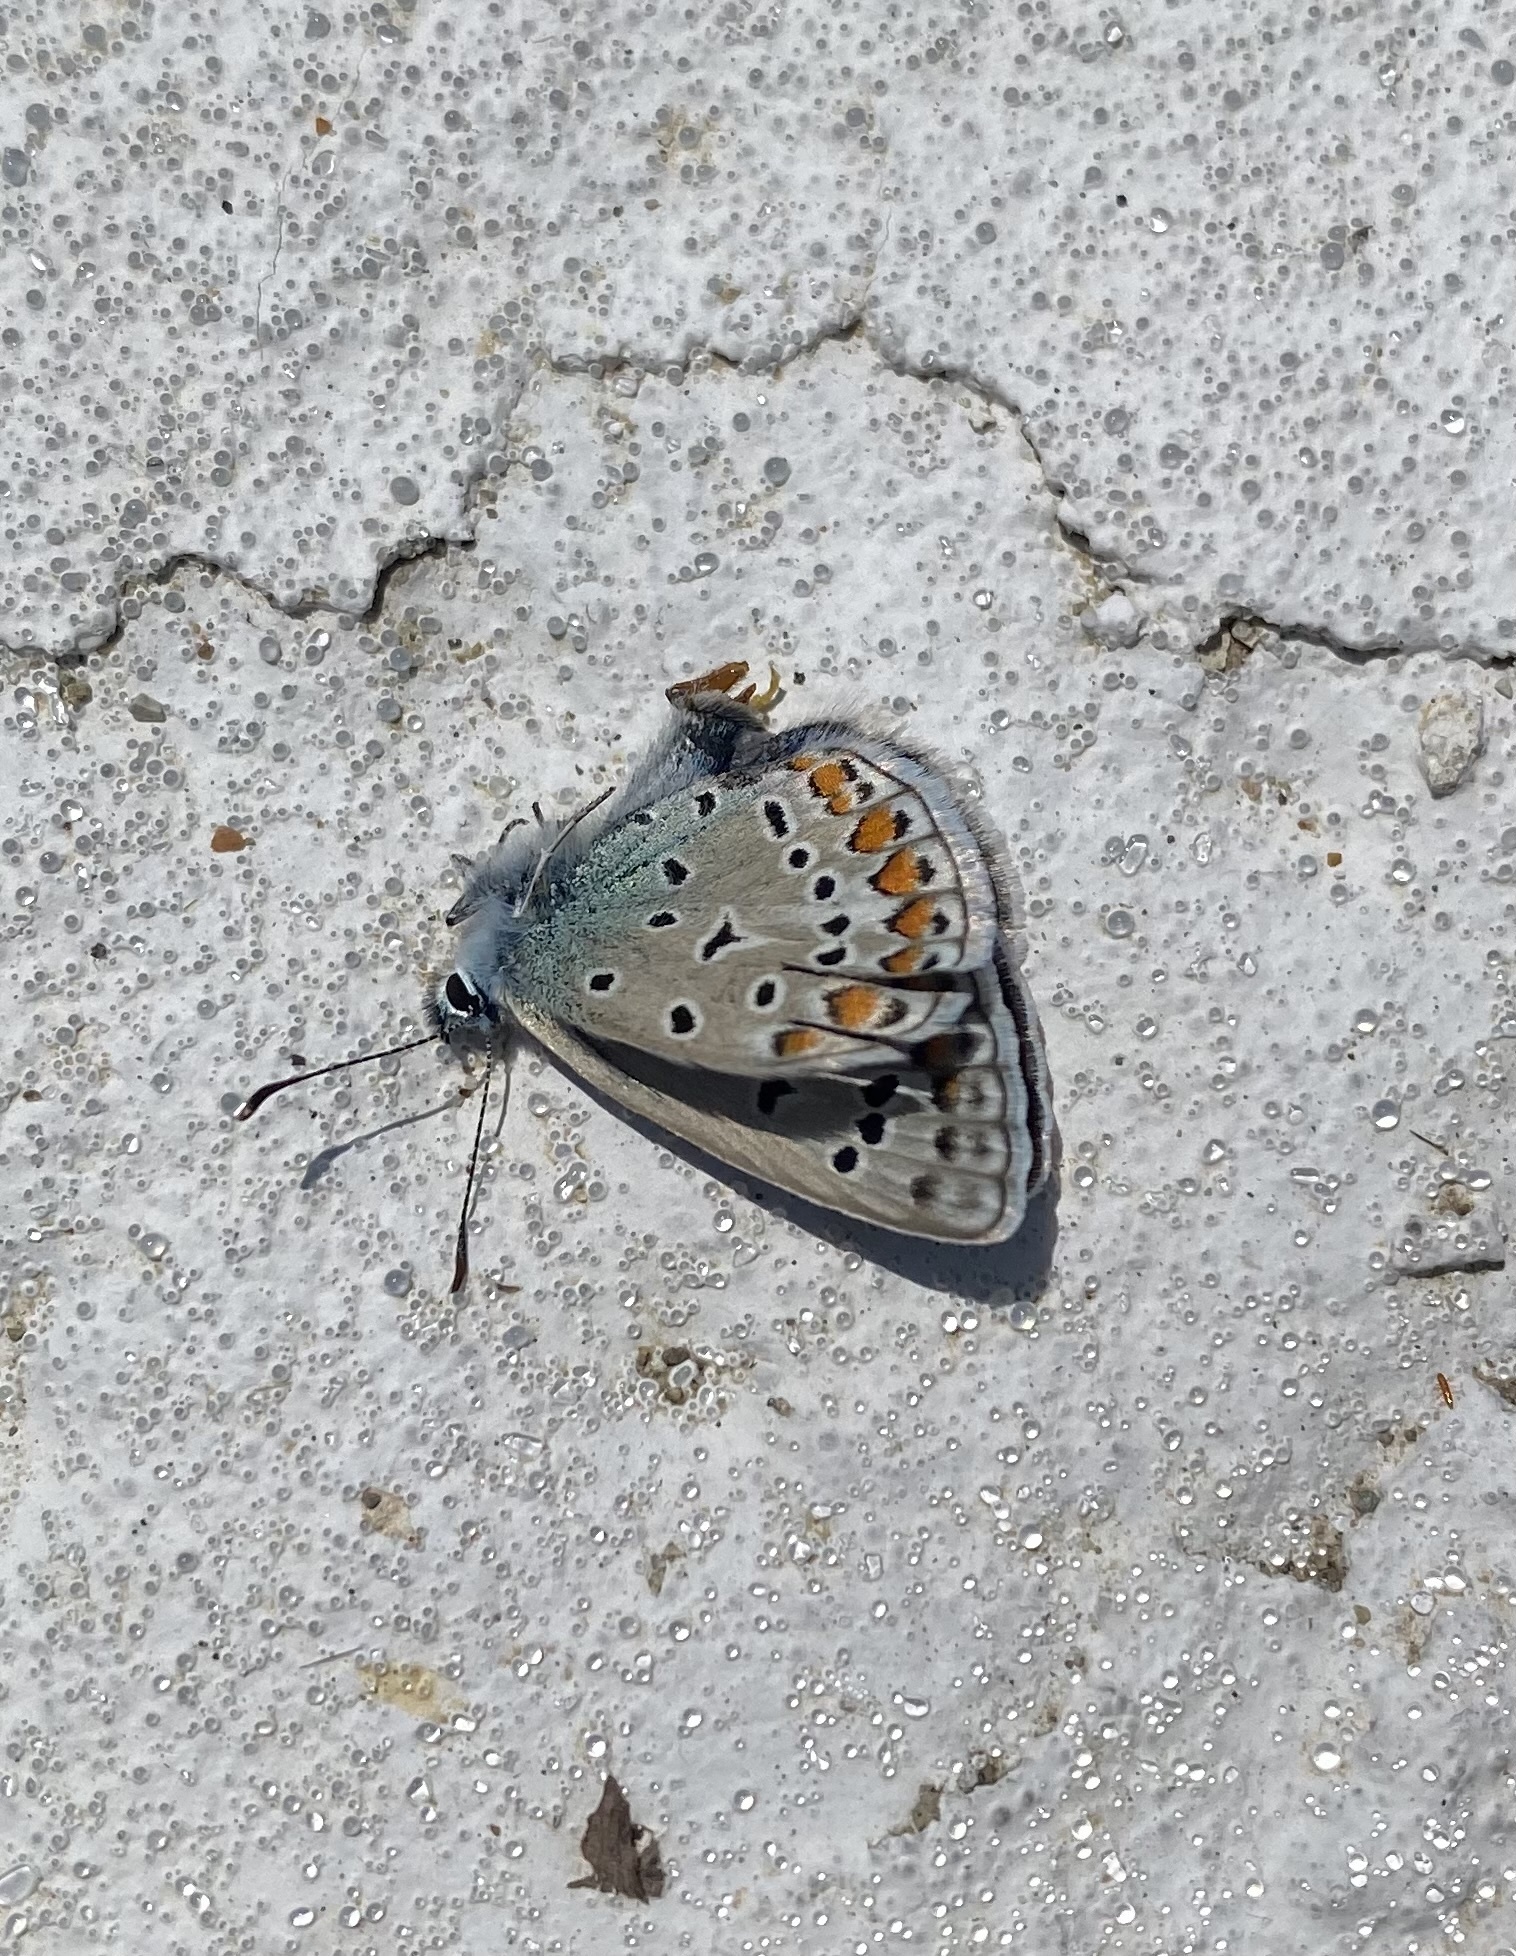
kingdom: Animalia
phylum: Arthropoda
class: Insecta
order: Lepidoptera
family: Lycaenidae
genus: Polyommatus
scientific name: Polyommatus icarus
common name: Common blue
